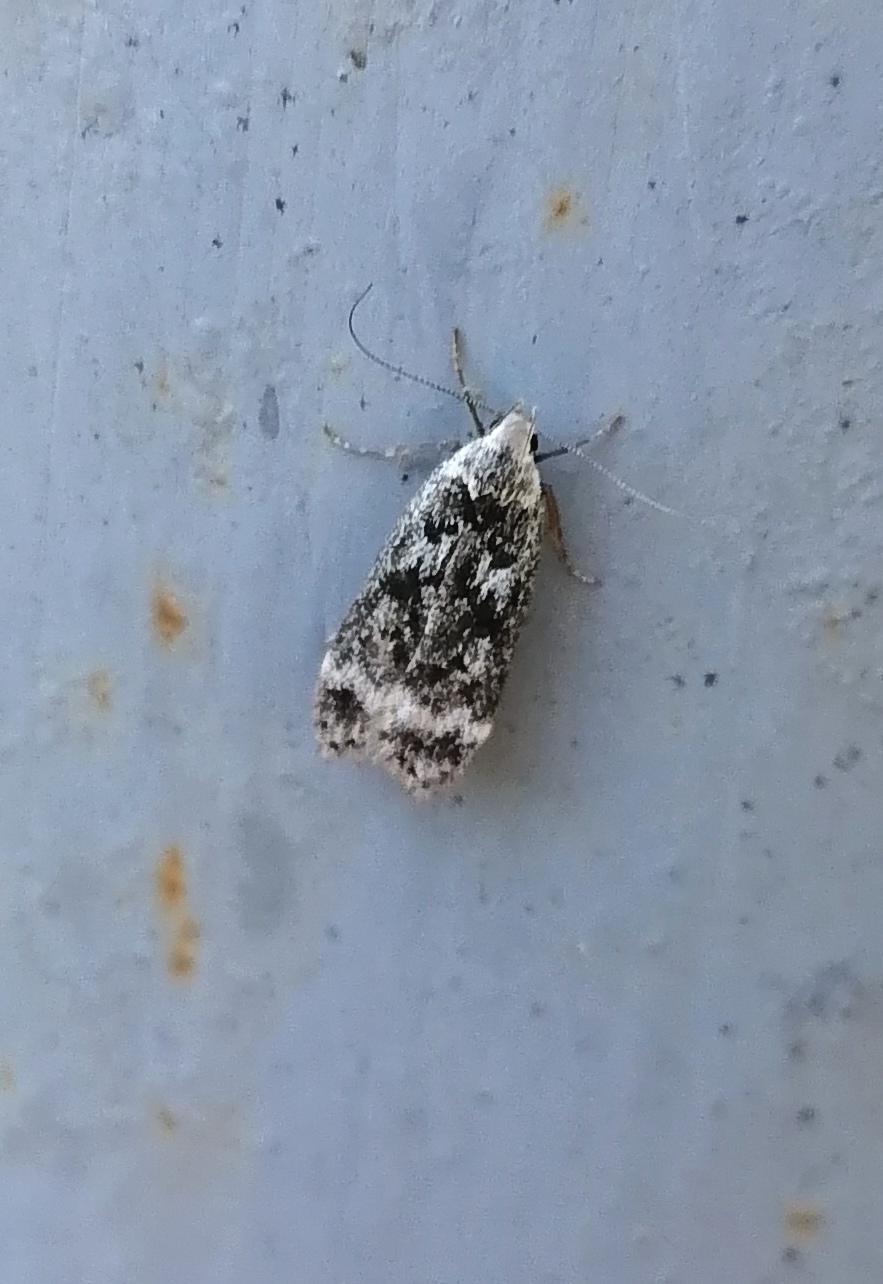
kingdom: Animalia
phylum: Arthropoda
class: Insecta
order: Lepidoptera
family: Gelechiidae
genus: Anacampsis
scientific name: Anacampsis blattariella
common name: Birch sober
